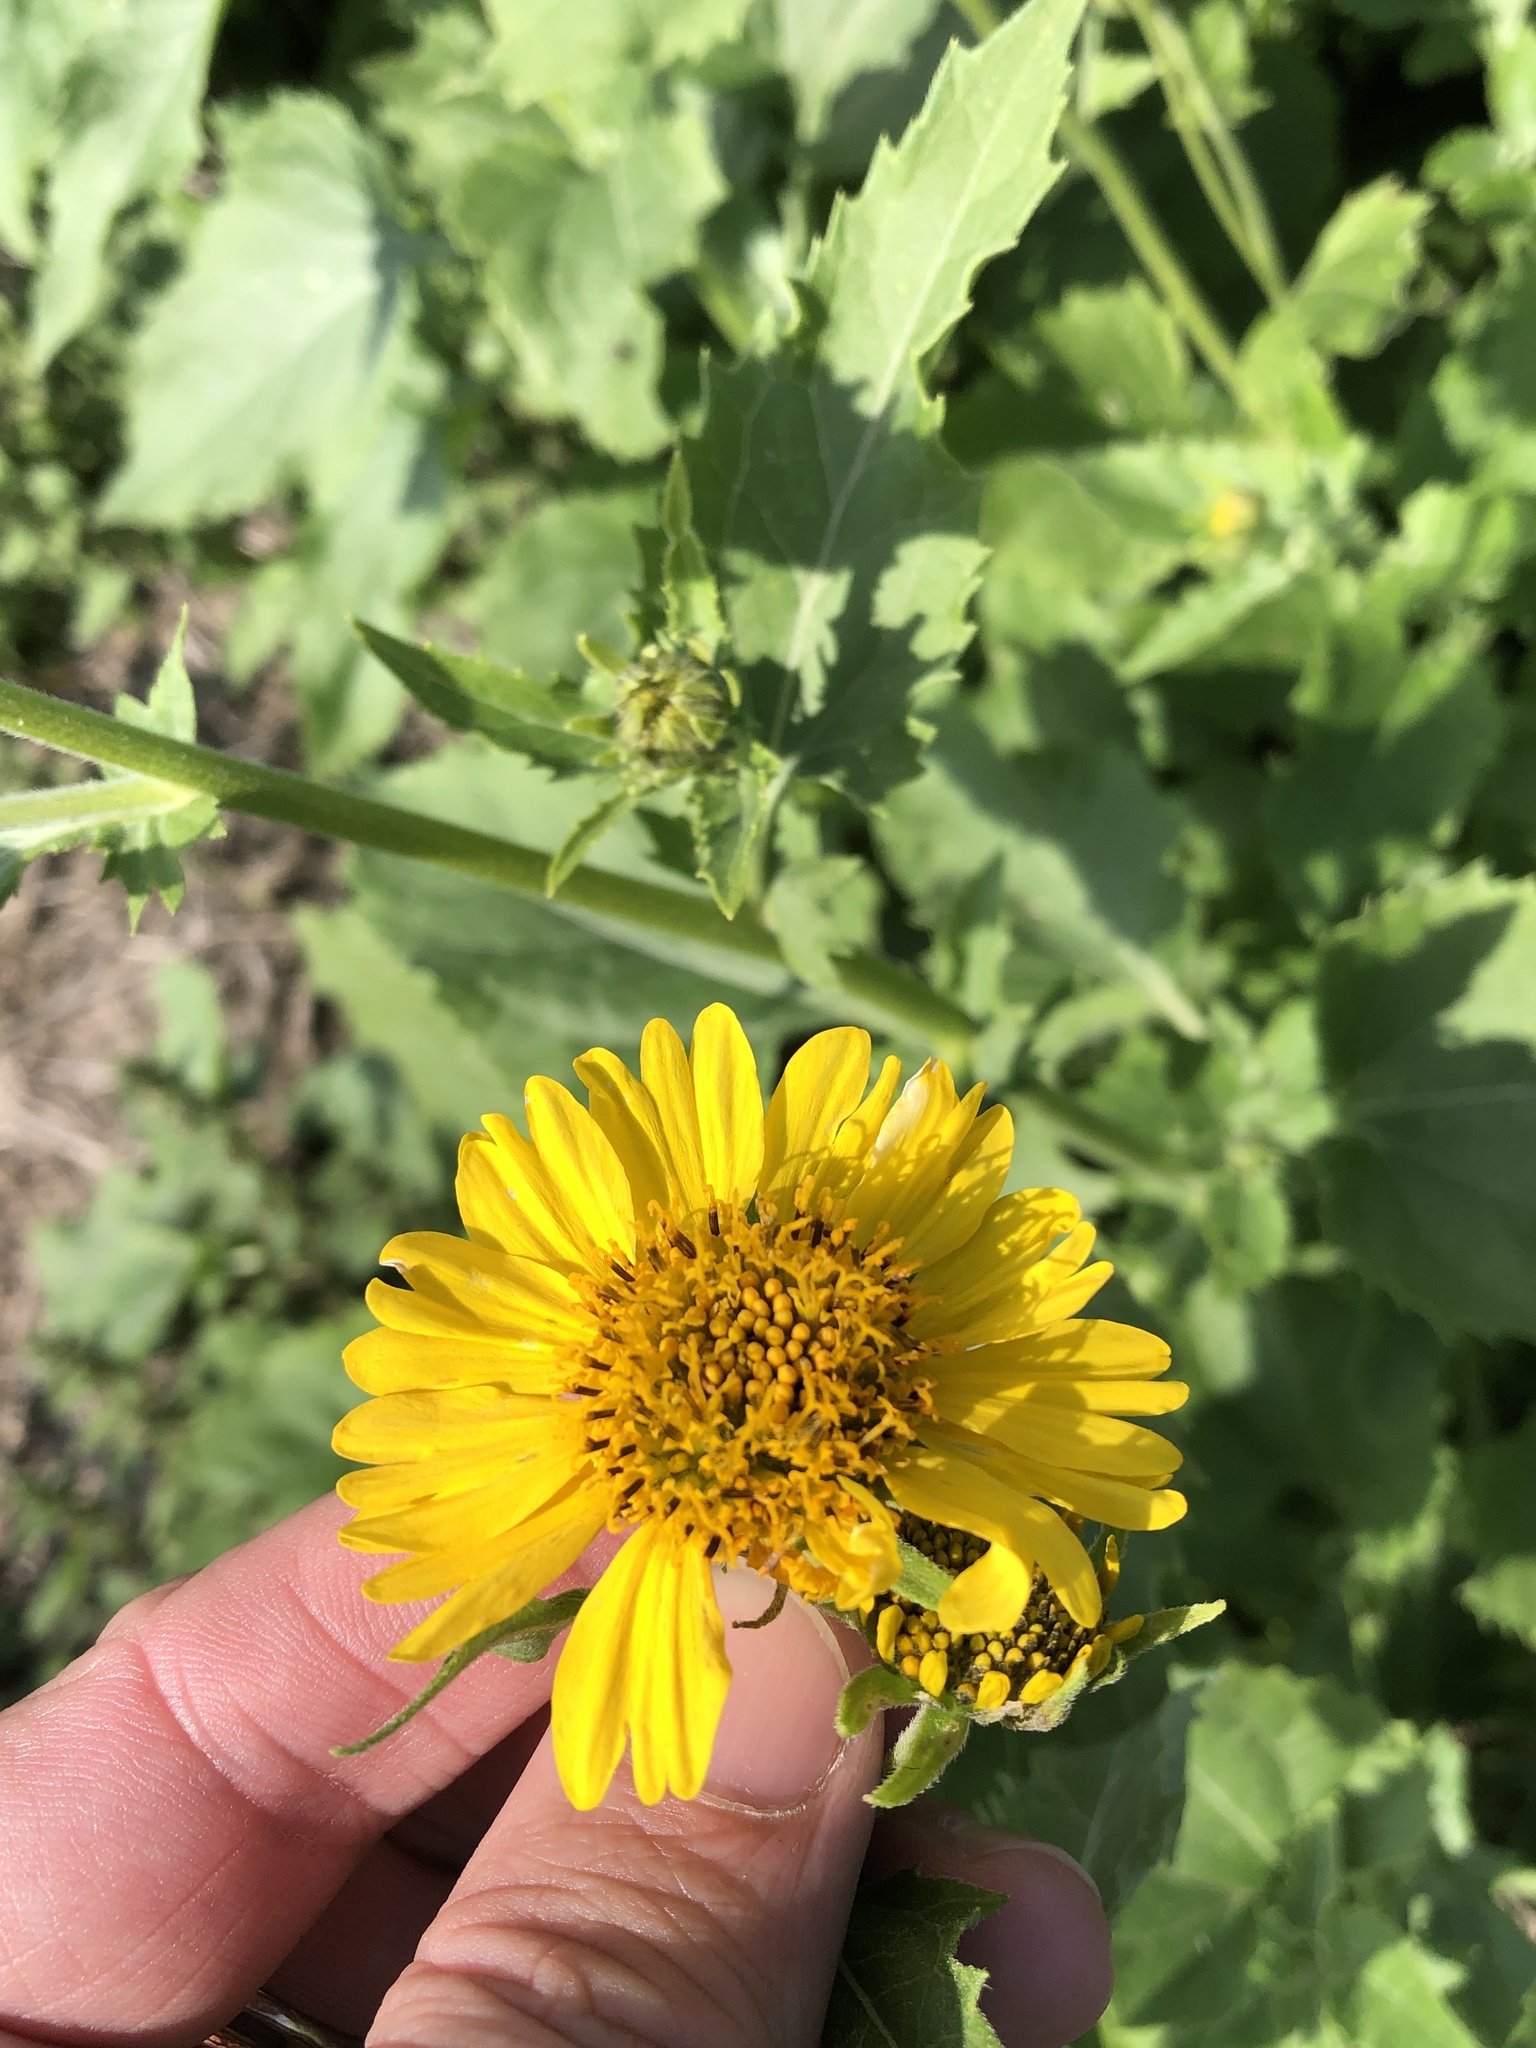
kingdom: Plantae
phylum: Tracheophyta
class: Magnoliopsida
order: Asterales
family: Asteraceae
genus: Verbesina
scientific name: Verbesina encelioides
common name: Golden crownbeard
